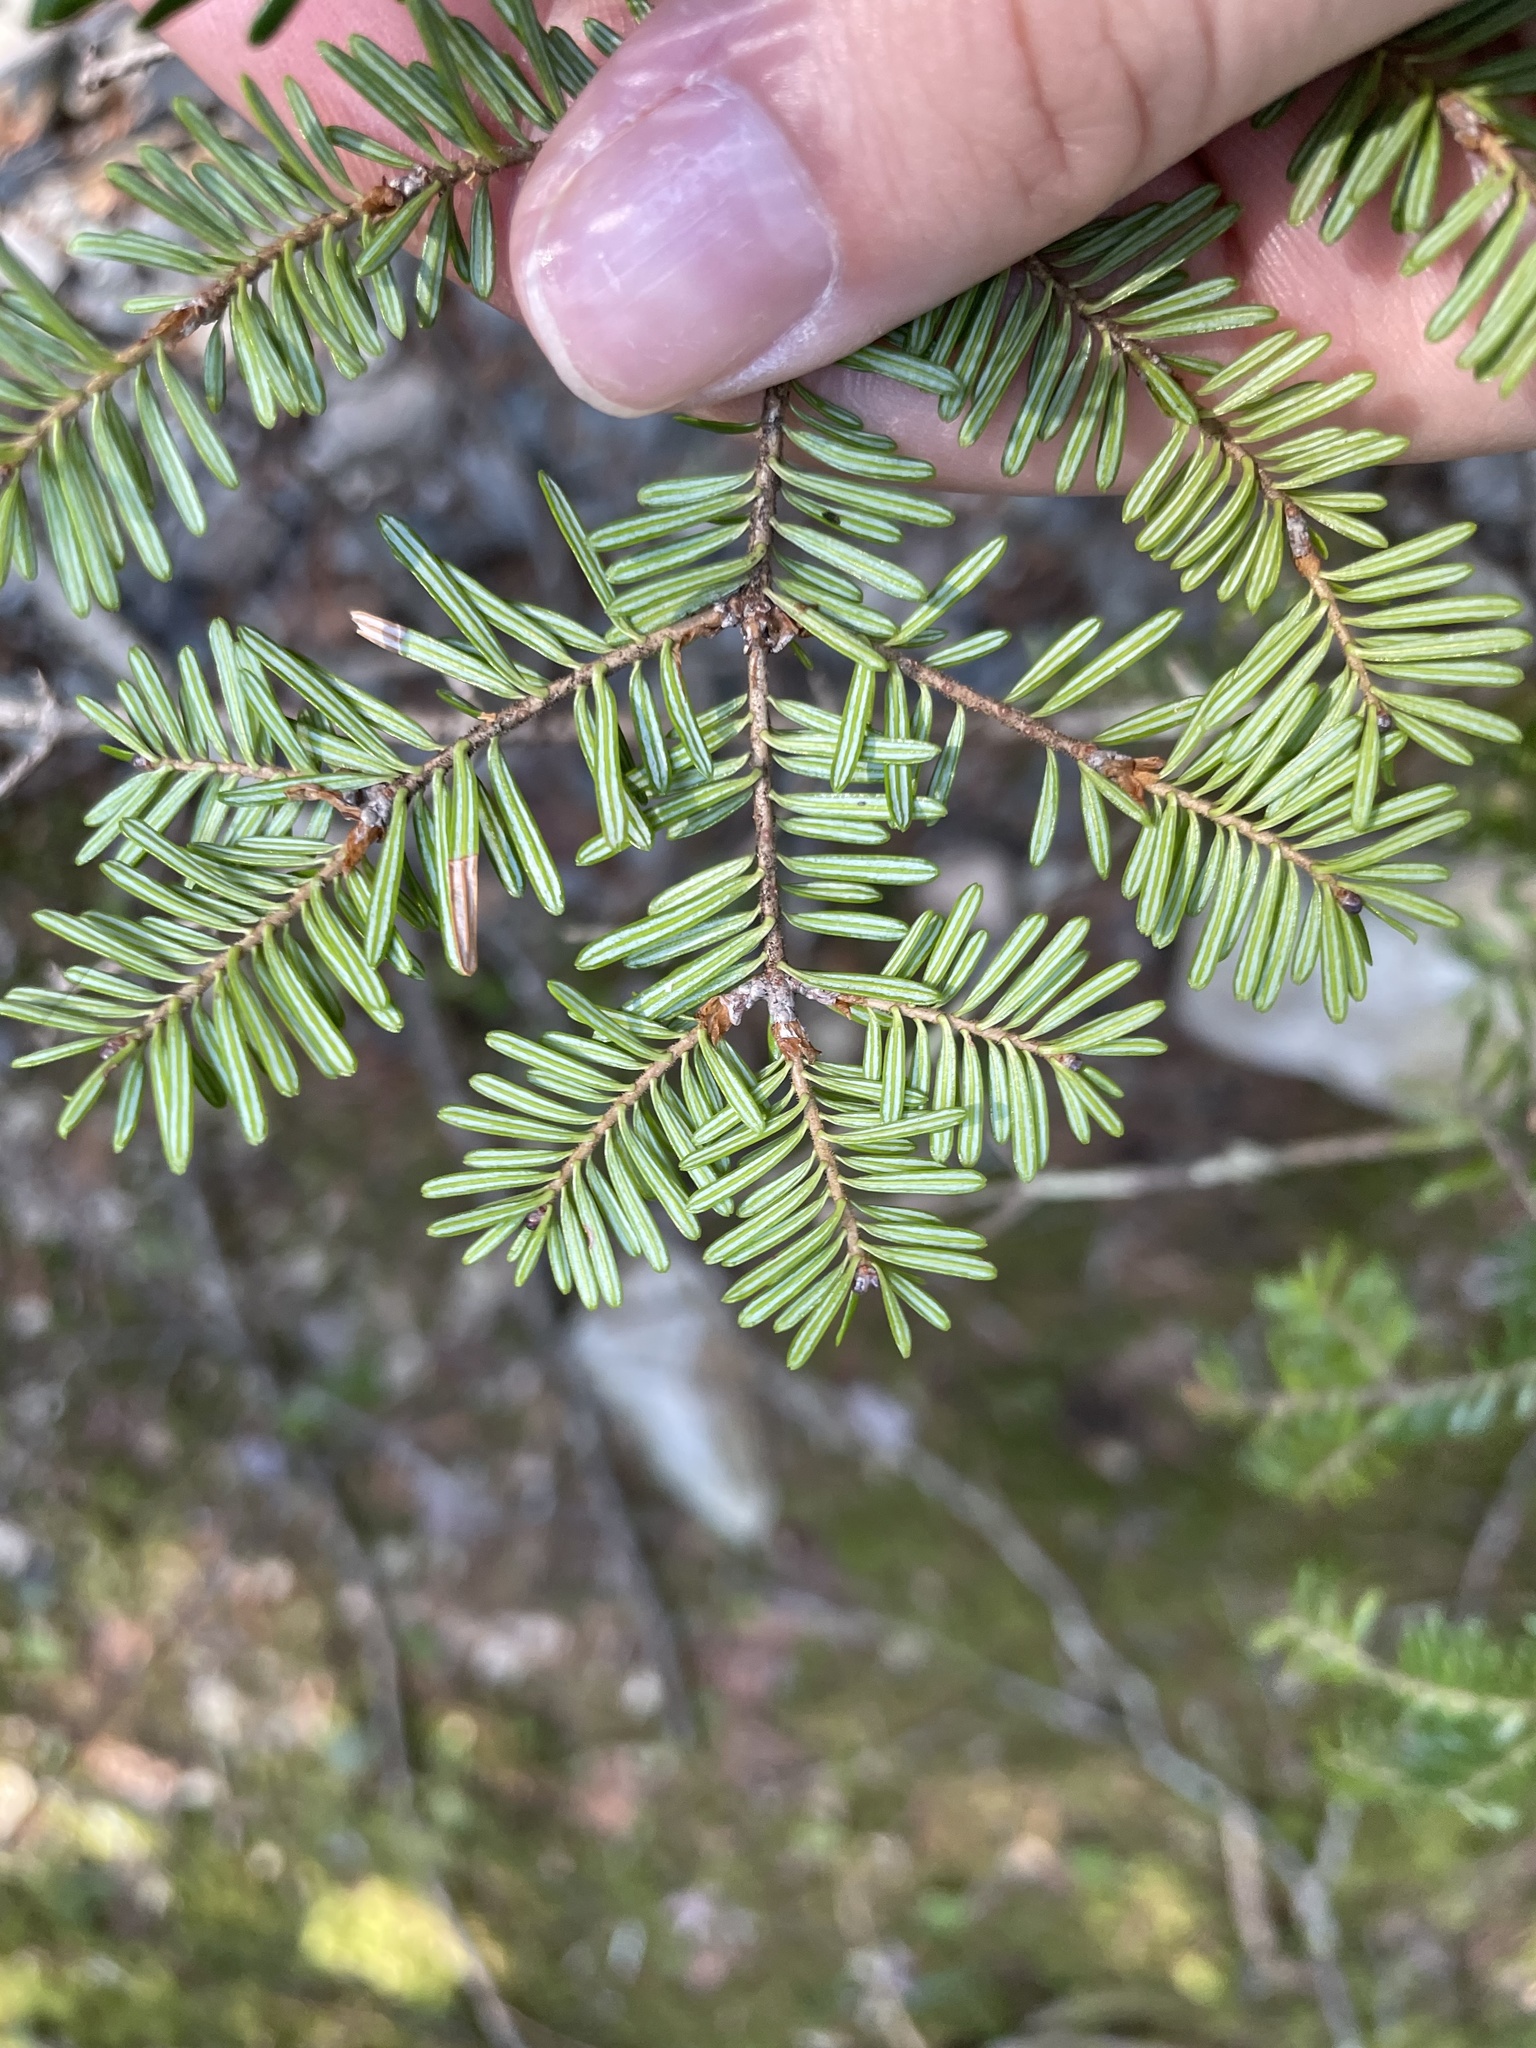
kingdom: Plantae
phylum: Tracheophyta
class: Pinopsida
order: Pinales
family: Pinaceae
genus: Tsuga
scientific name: Tsuga canadensis
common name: Eastern hemlock
